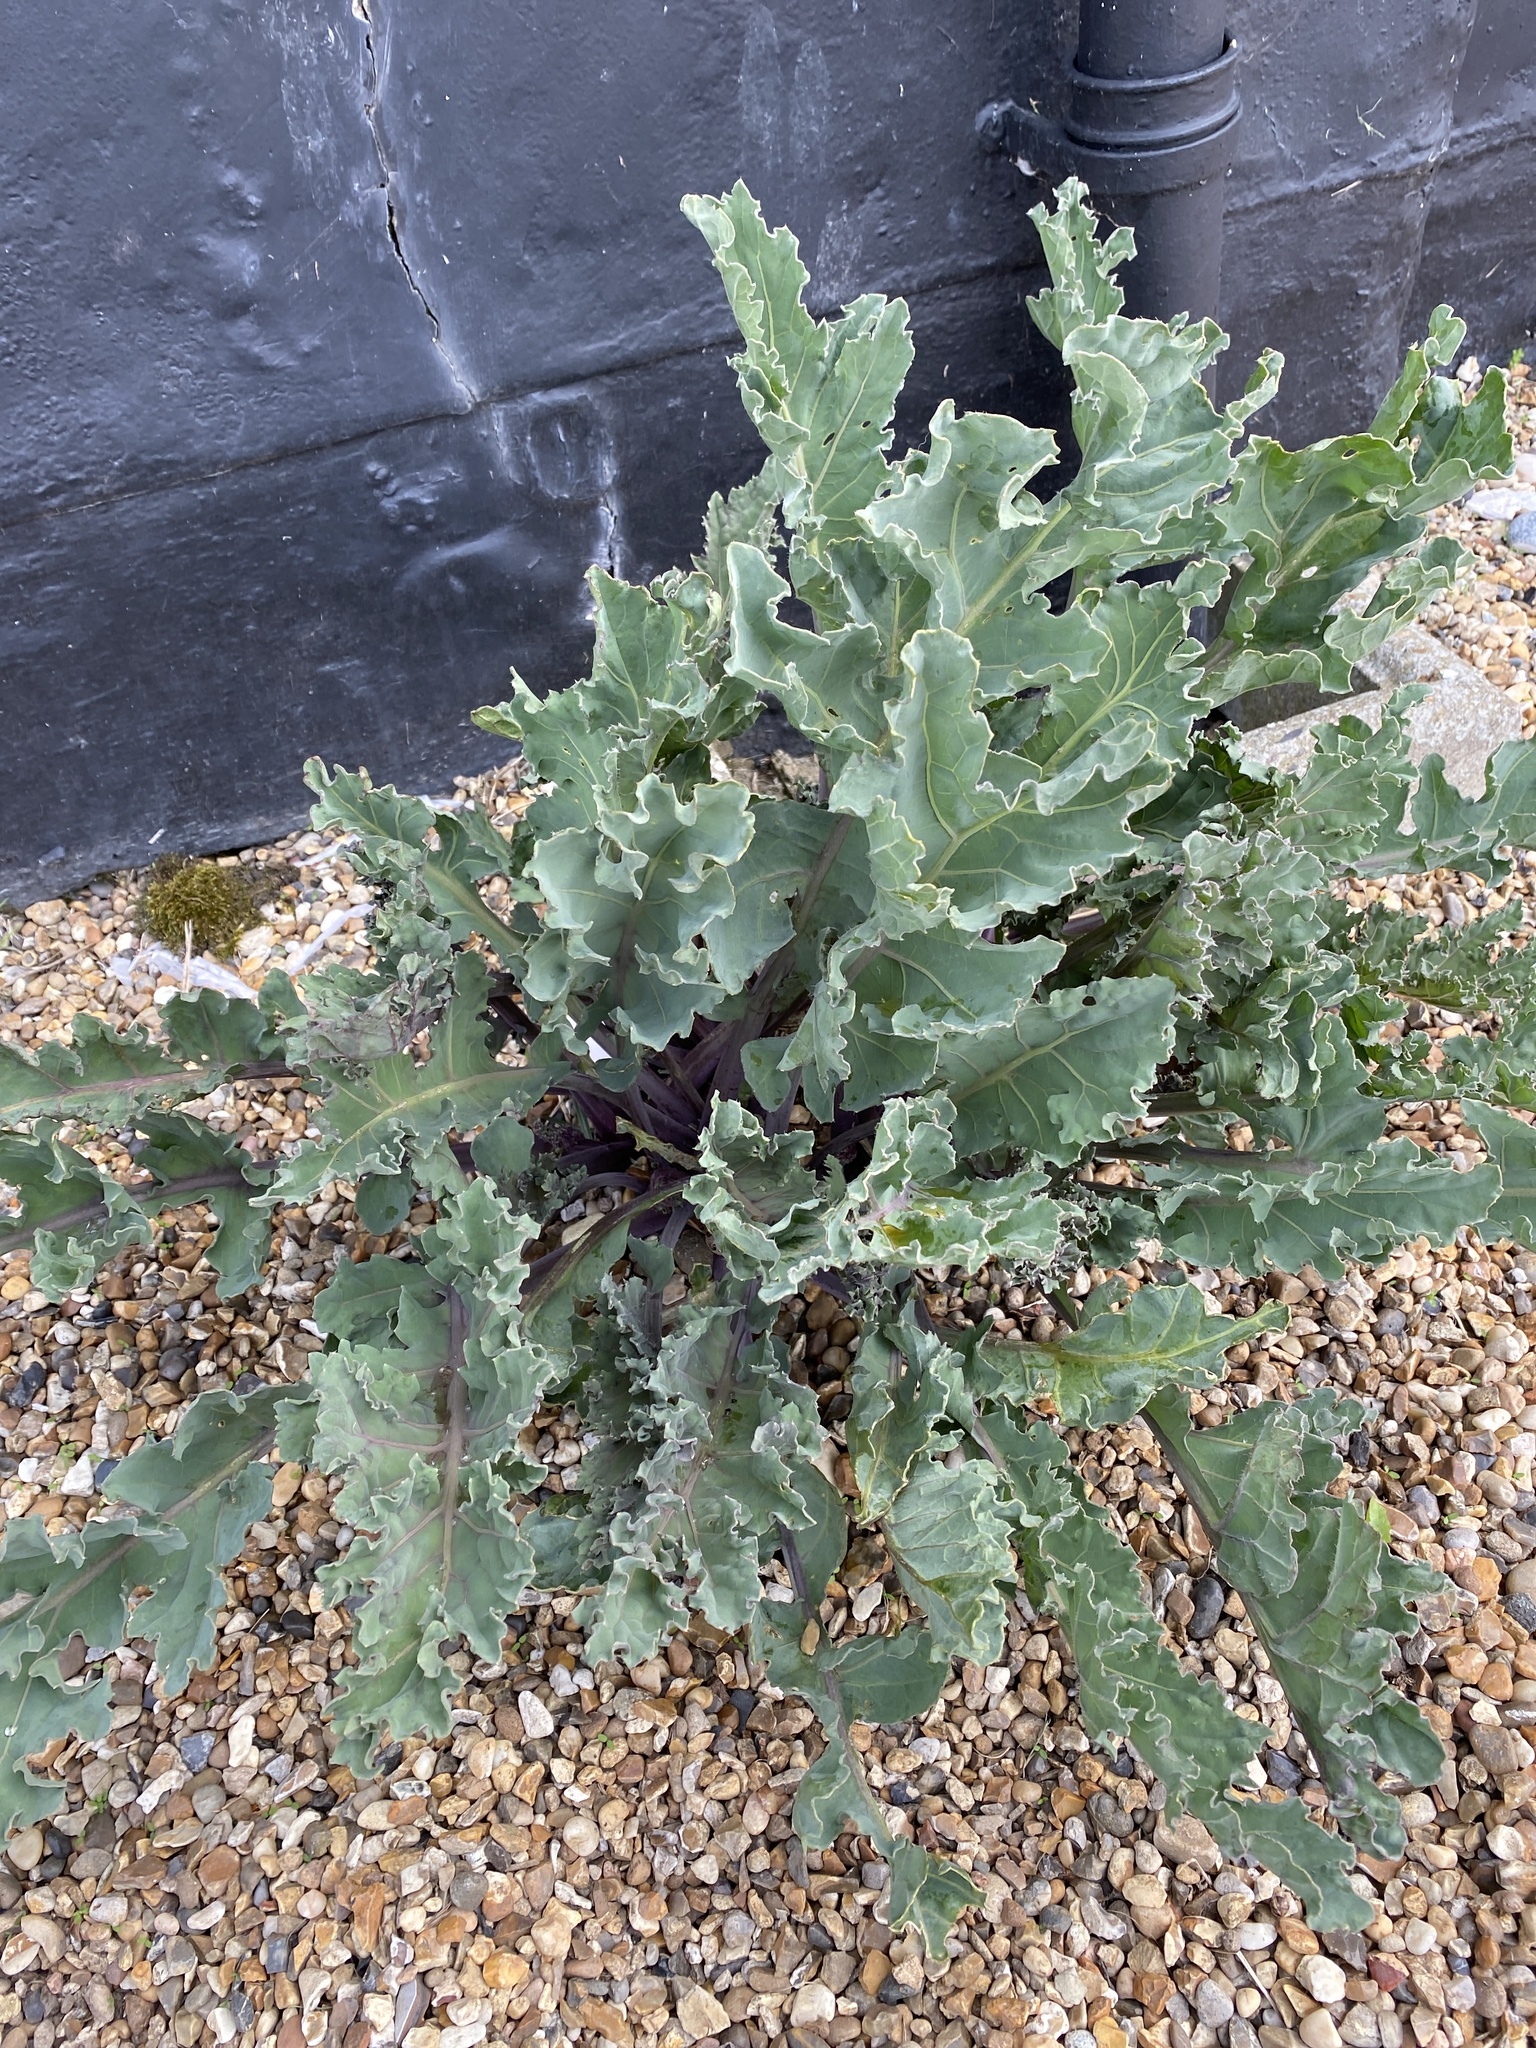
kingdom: Plantae
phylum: Tracheophyta
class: Magnoliopsida
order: Brassicales
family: Brassicaceae
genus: Crambe
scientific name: Crambe maritima
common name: Sea-kale
